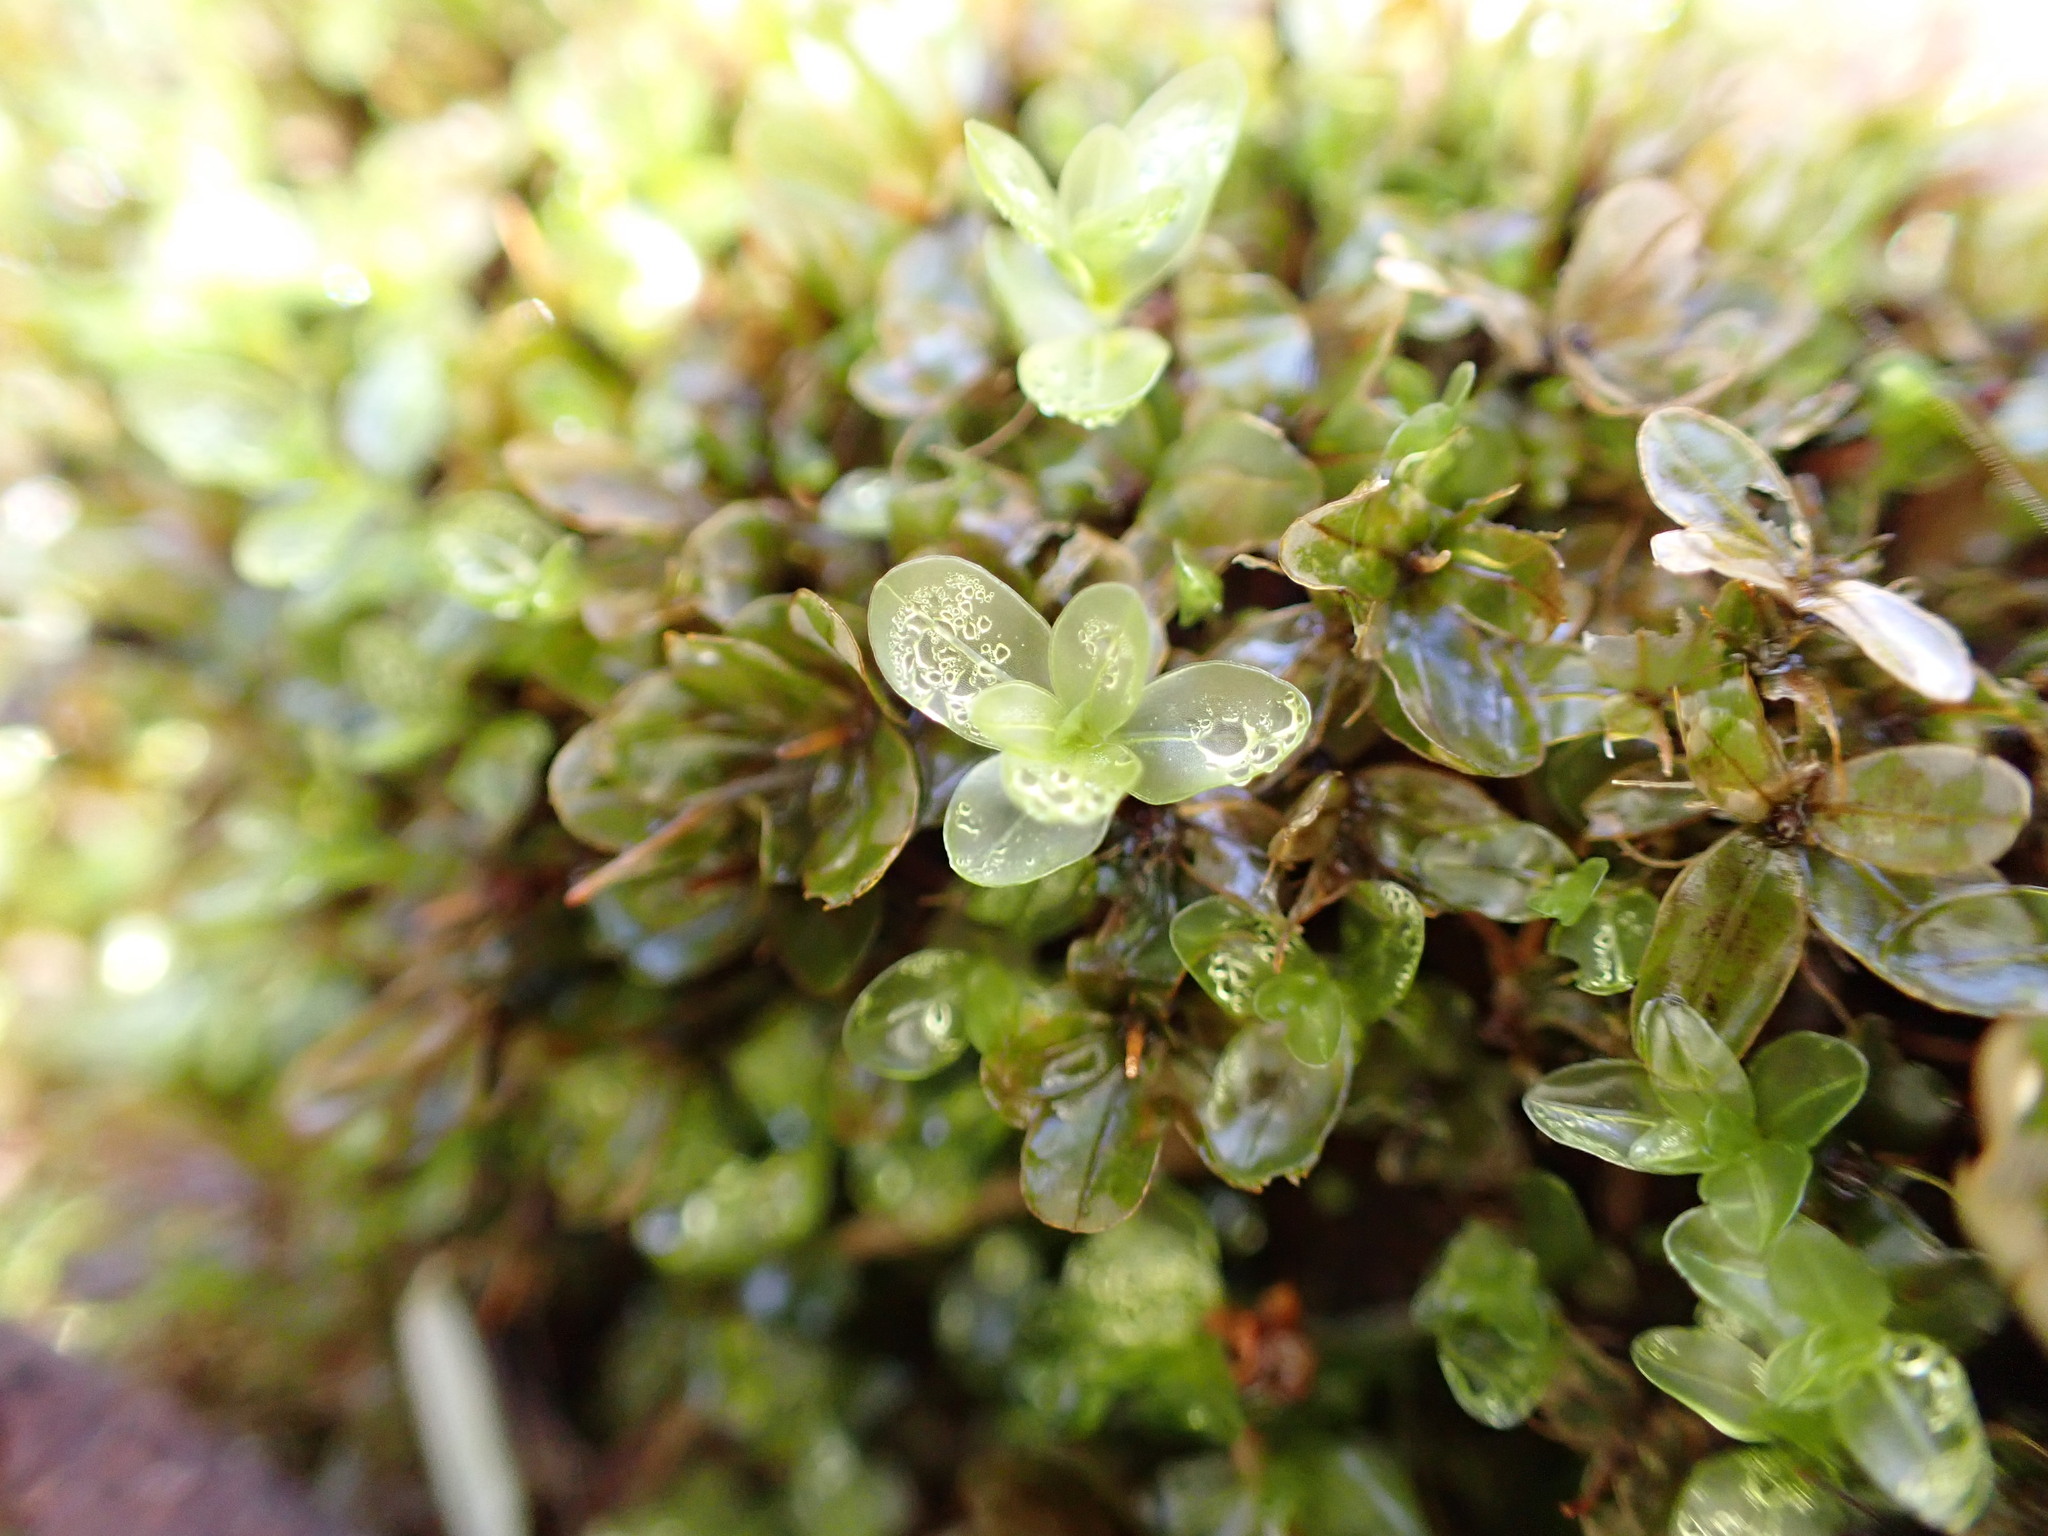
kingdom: Plantae
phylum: Bryophyta
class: Bryopsida
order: Bryales
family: Mniaceae
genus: Rhizomnium
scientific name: Rhizomnium glabrescens
